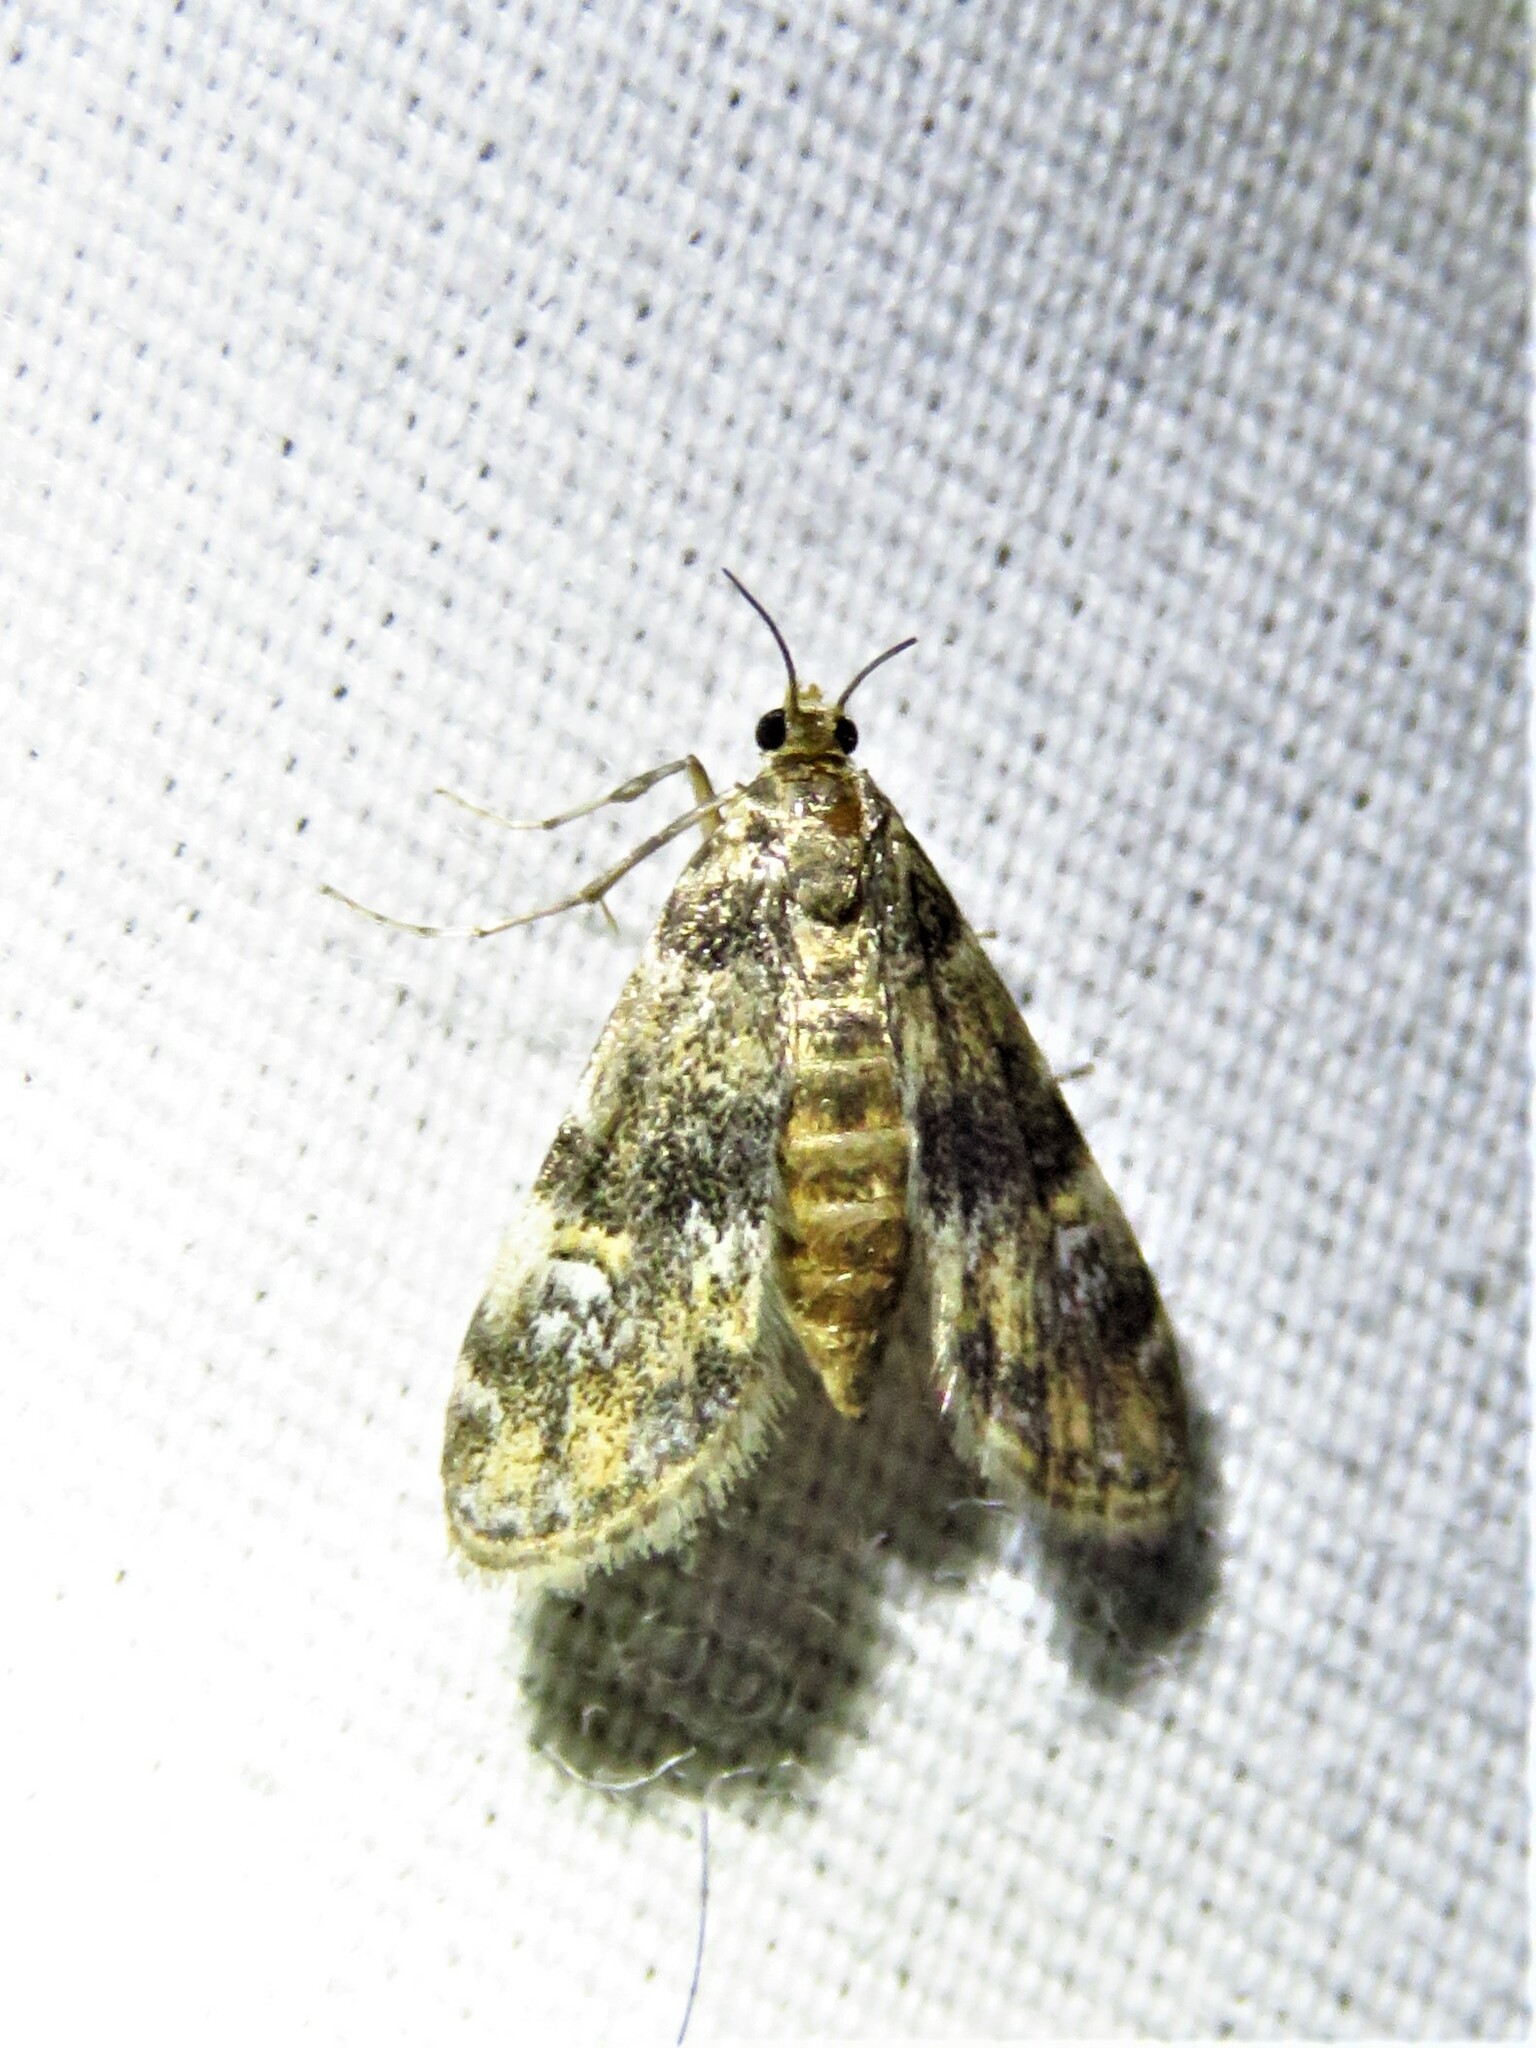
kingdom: Animalia
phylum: Arthropoda
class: Insecta
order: Lepidoptera
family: Crambidae
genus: Elophila
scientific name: Elophila obliteralis
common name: Waterlily leafcutter moth
